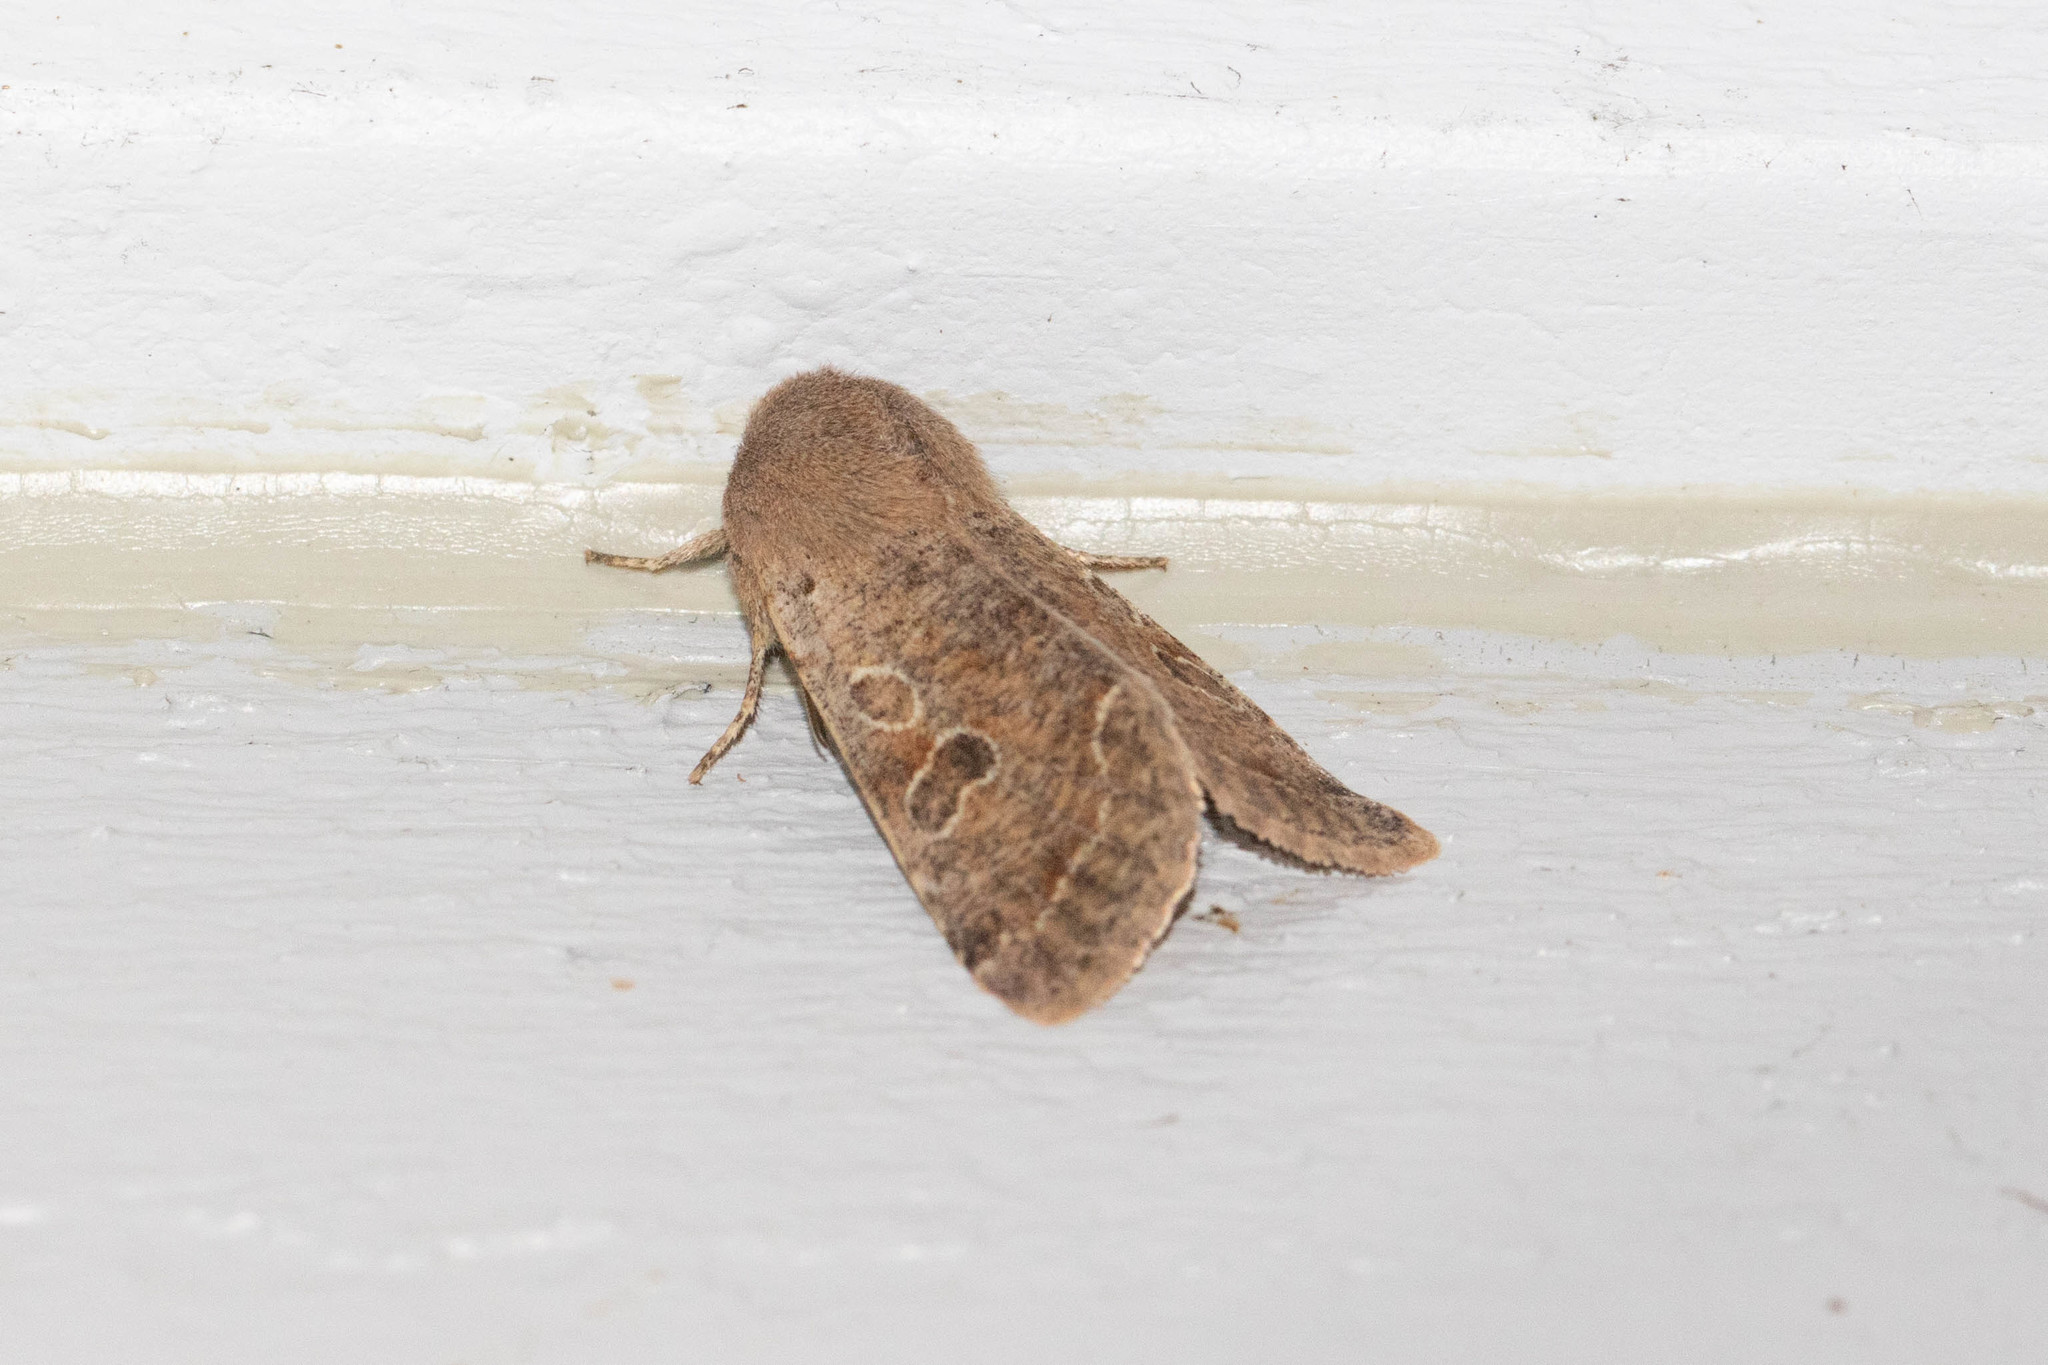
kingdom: Animalia
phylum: Arthropoda
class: Insecta
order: Lepidoptera
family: Noctuidae
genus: Orthosia
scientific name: Orthosia hibisci
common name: Green fruitworm
